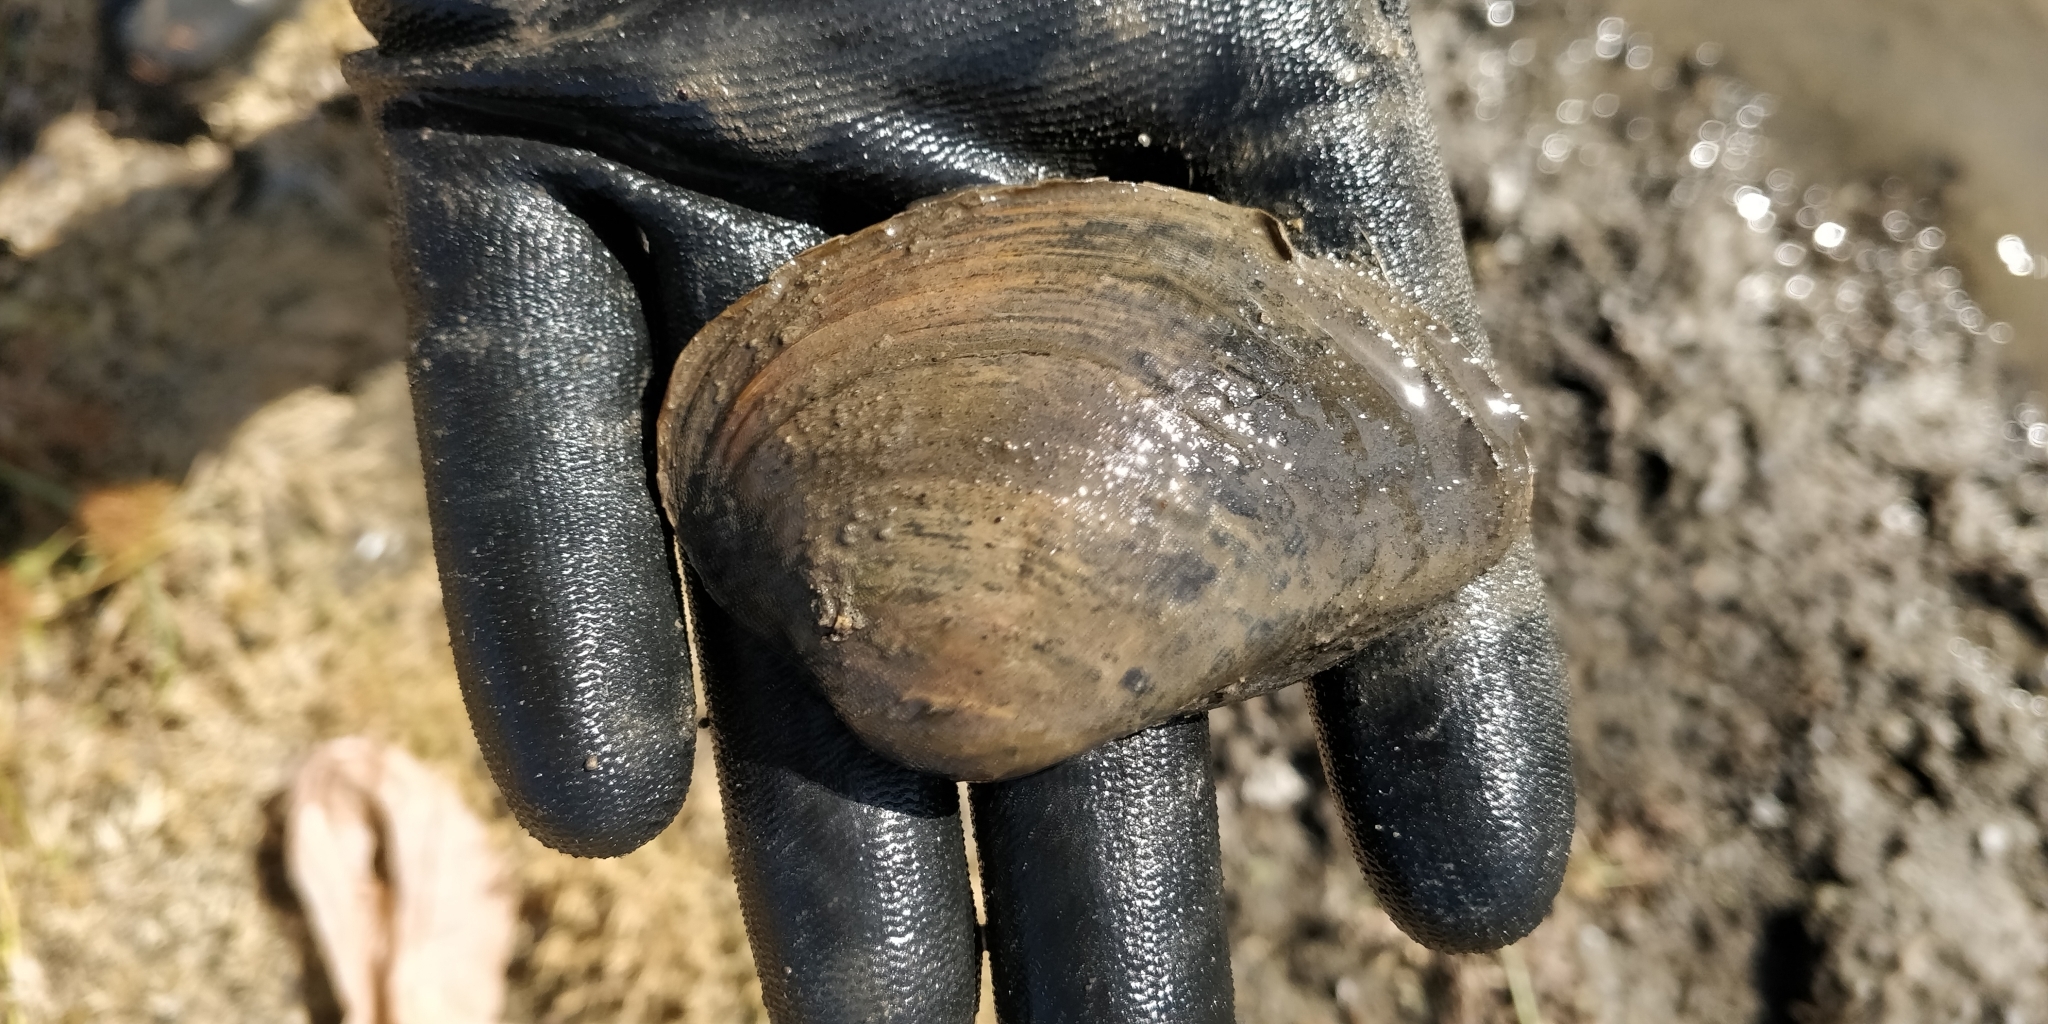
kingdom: Animalia
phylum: Mollusca
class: Bivalvia
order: Unionida
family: Unionidae
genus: Truncilla
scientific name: Truncilla truncata
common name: Deertoe
